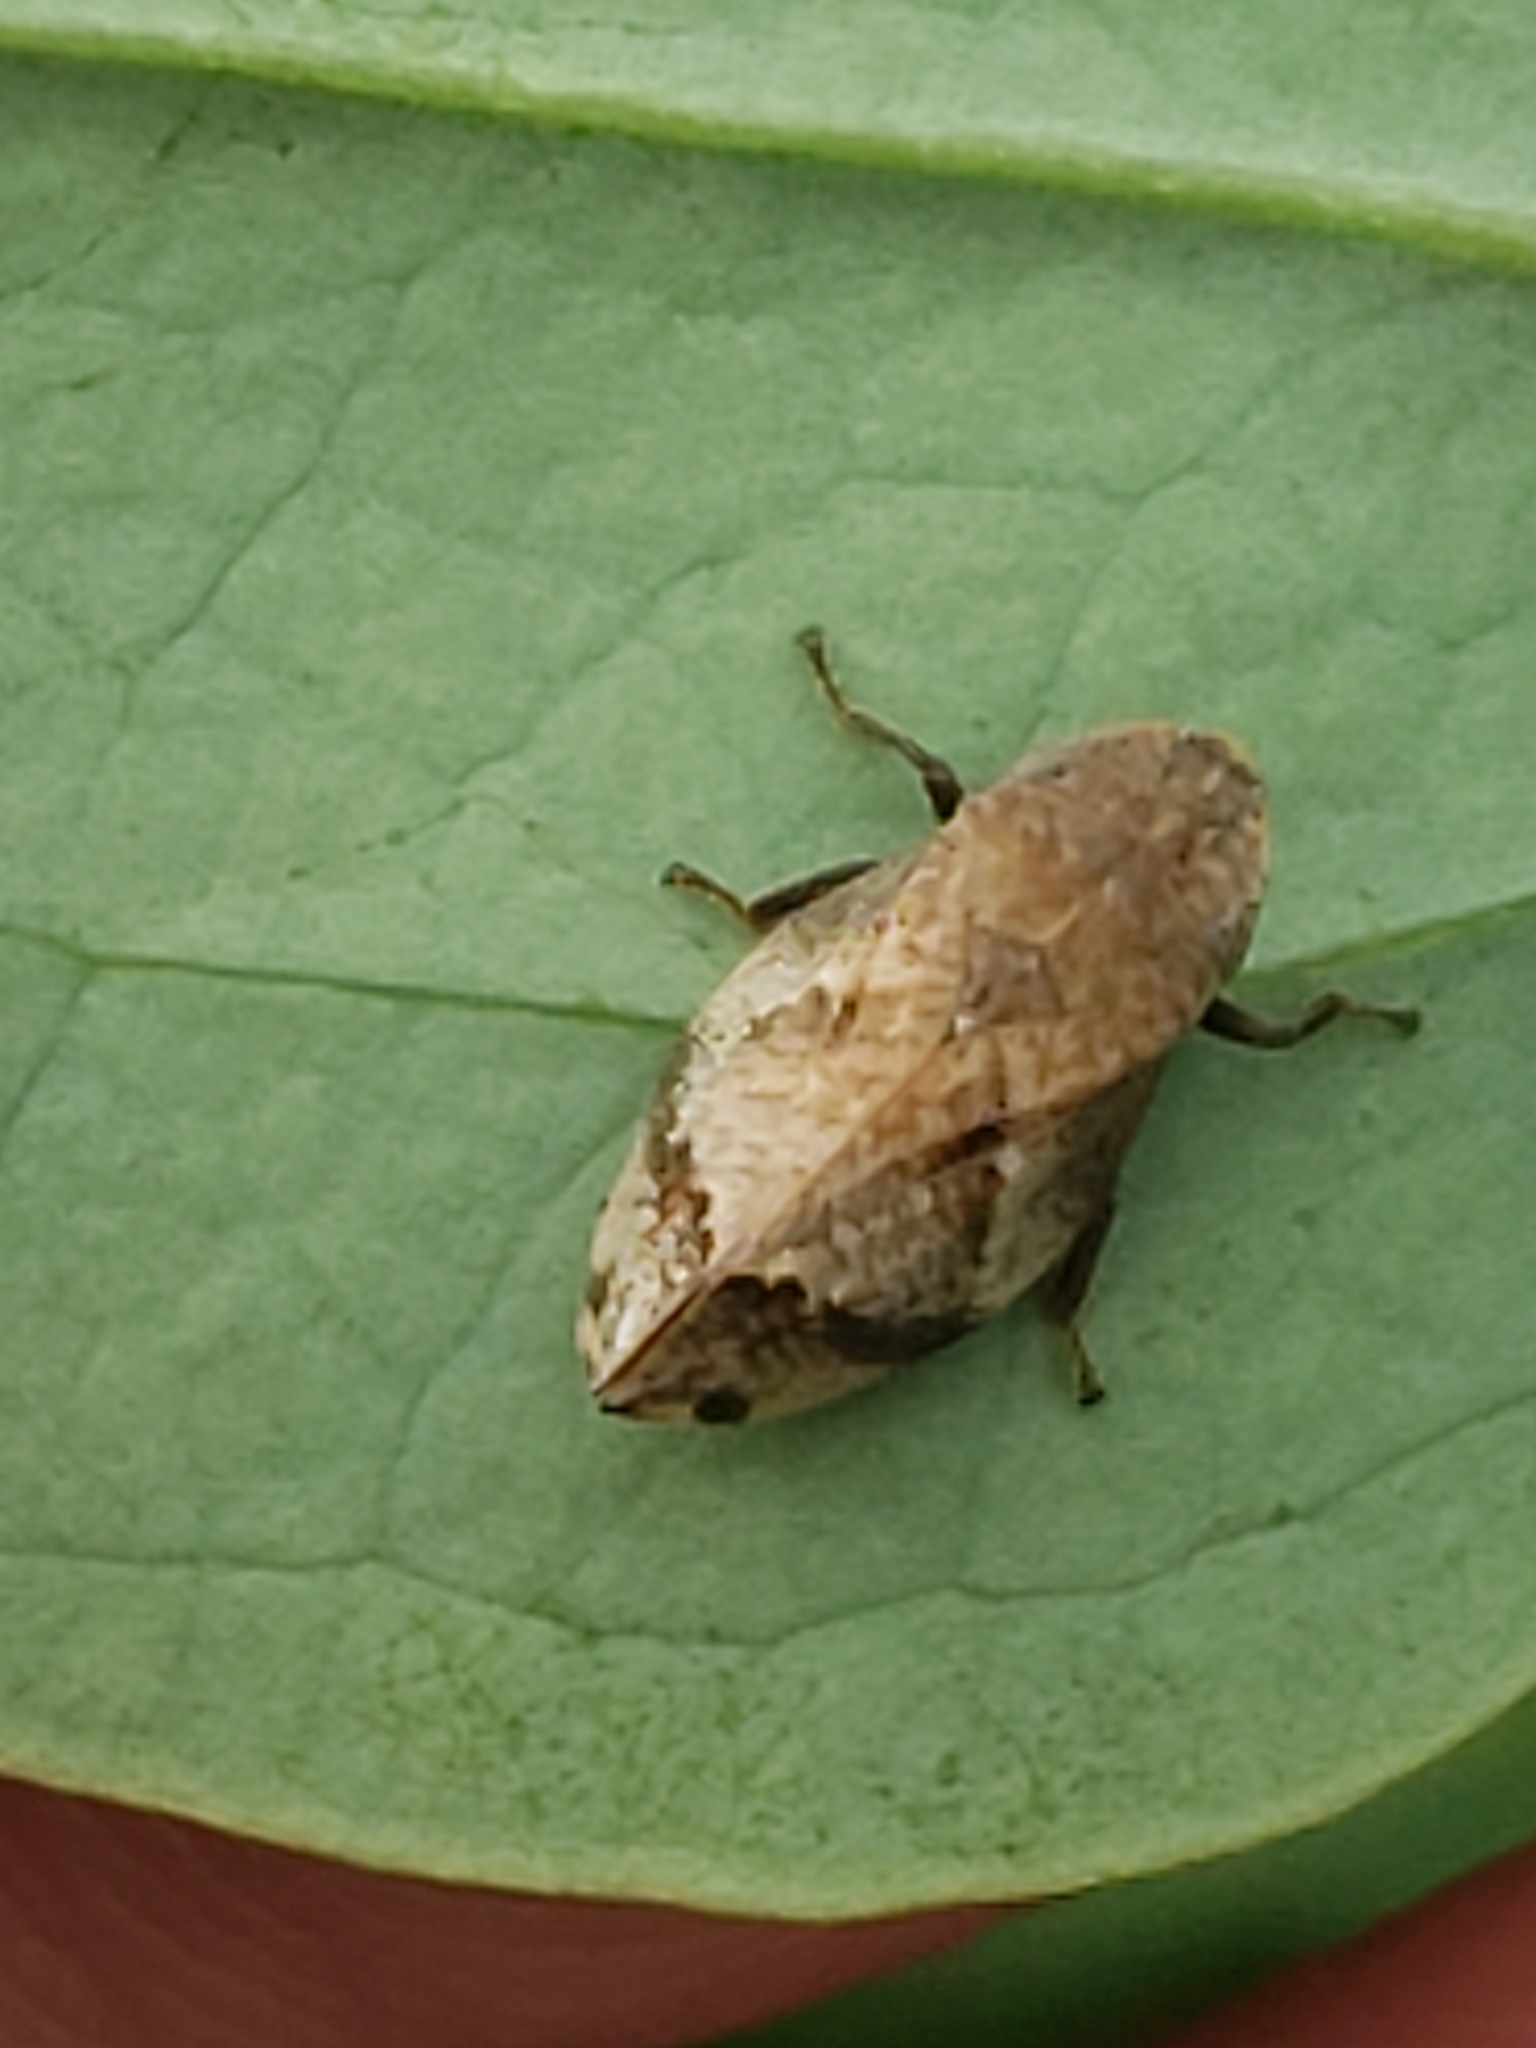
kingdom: Animalia
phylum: Arthropoda
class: Insecta
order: Hemiptera
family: Aphrophoridae
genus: Lepyronia
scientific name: Lepyronia quadrangularis
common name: Diamond-backed spittlebug
